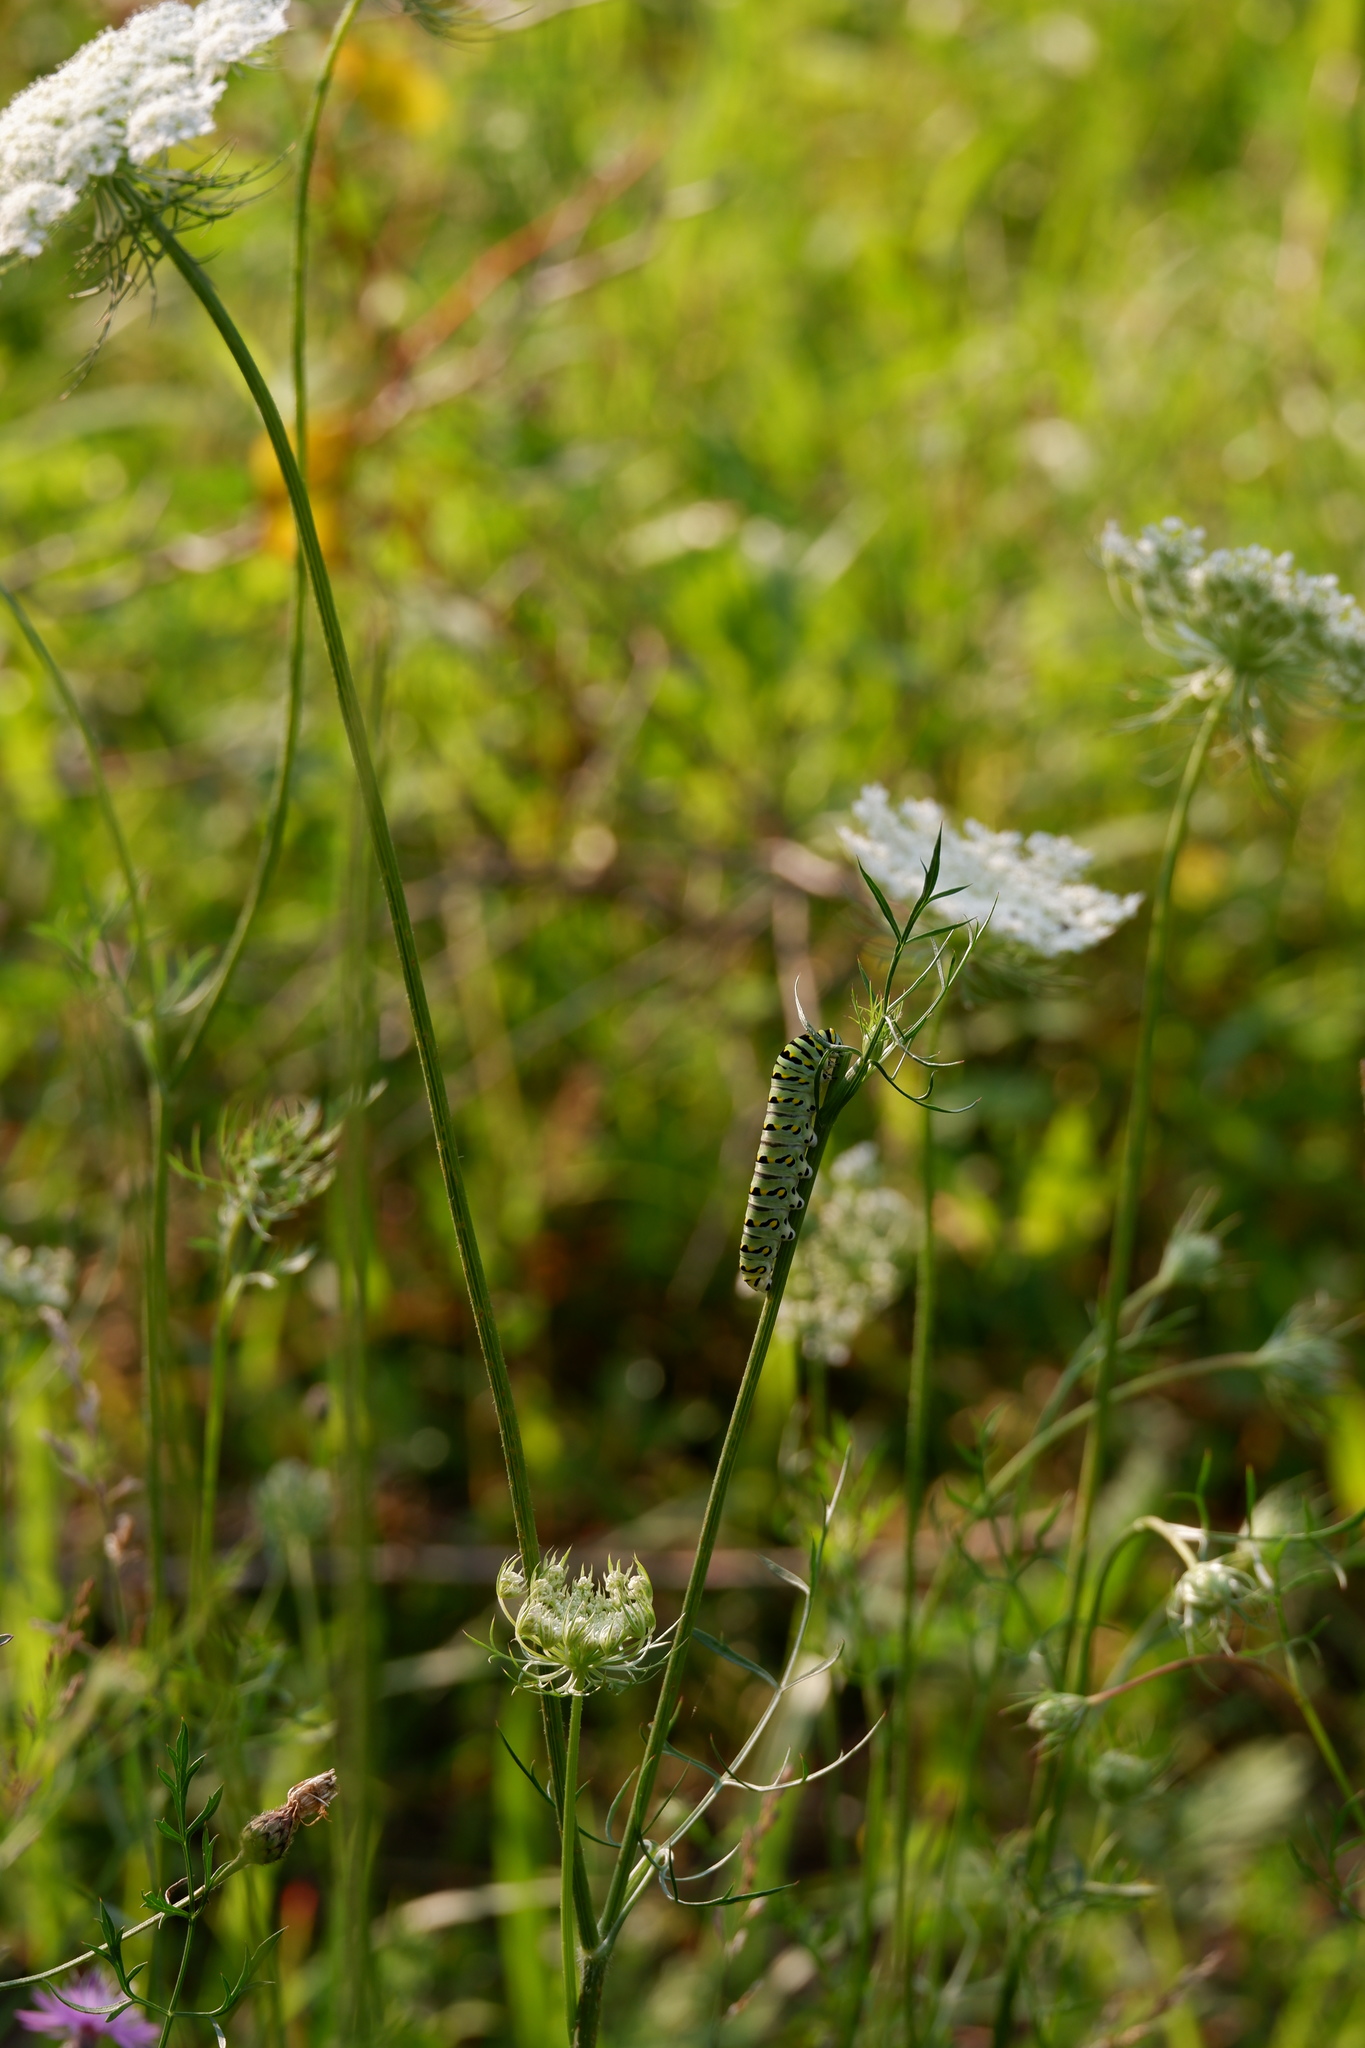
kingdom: Animalia
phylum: Arthropoda
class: Insecta
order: Lepidoptera
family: Papilionidae
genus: Papilio
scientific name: Papilio polyxenes
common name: Black swallowtail
